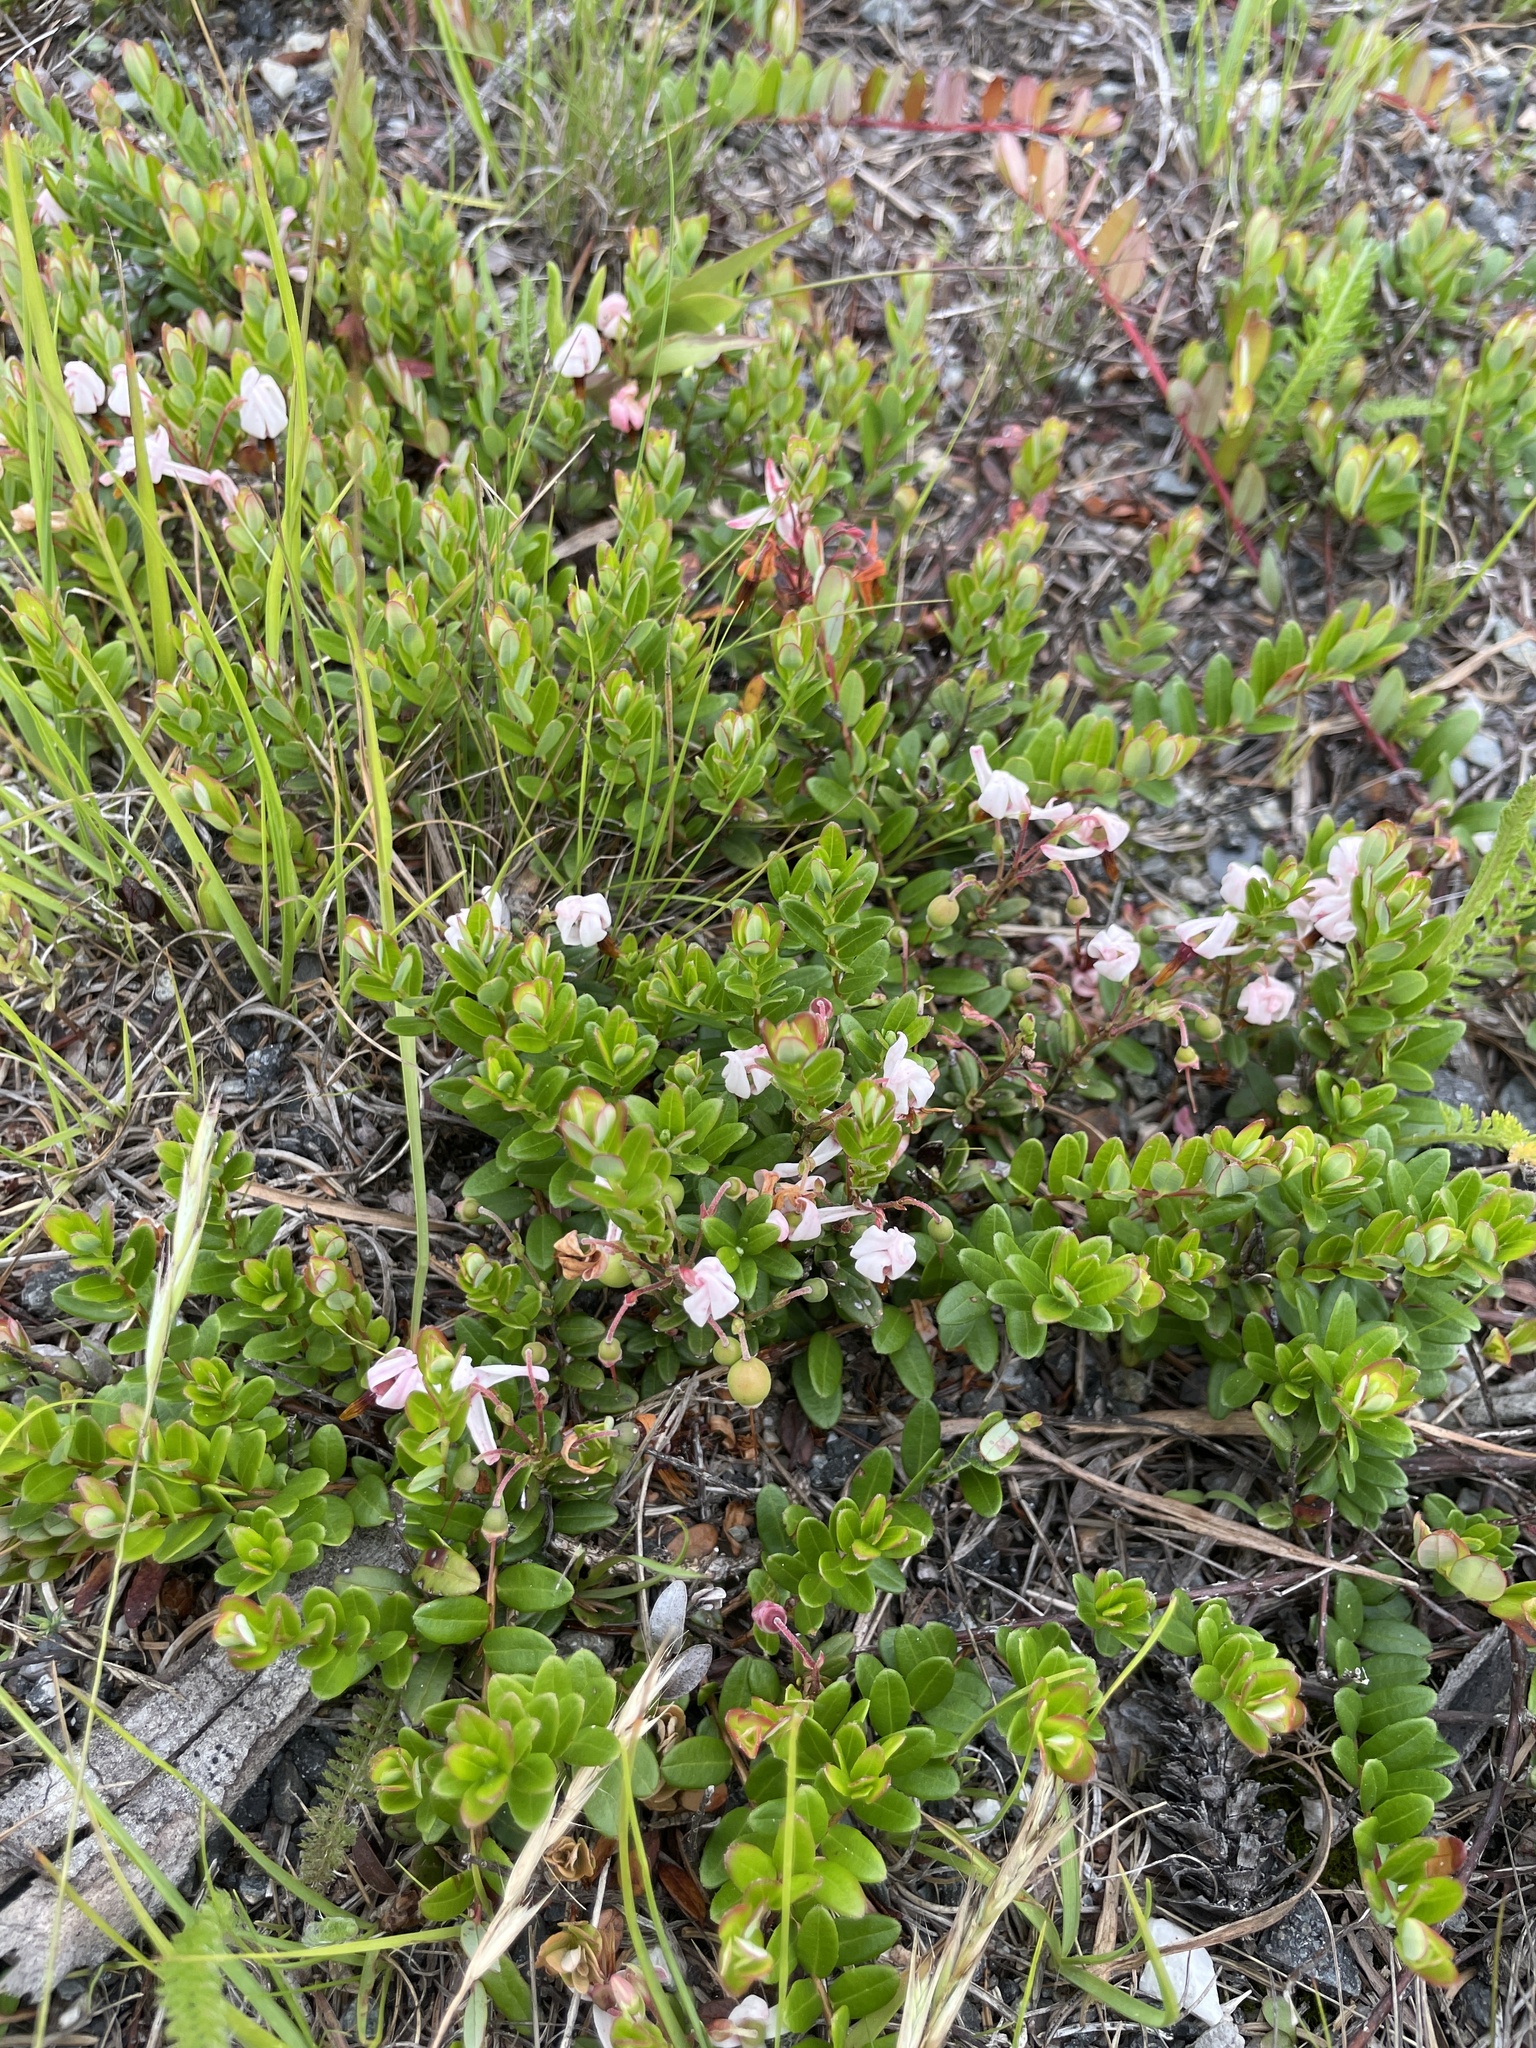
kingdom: Plantae
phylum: Tracheophyta
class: Magnoliopsida
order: Ericales
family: Ericaceae
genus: Vaccinium
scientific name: Vaccinium macrocarpon
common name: American cranberry
